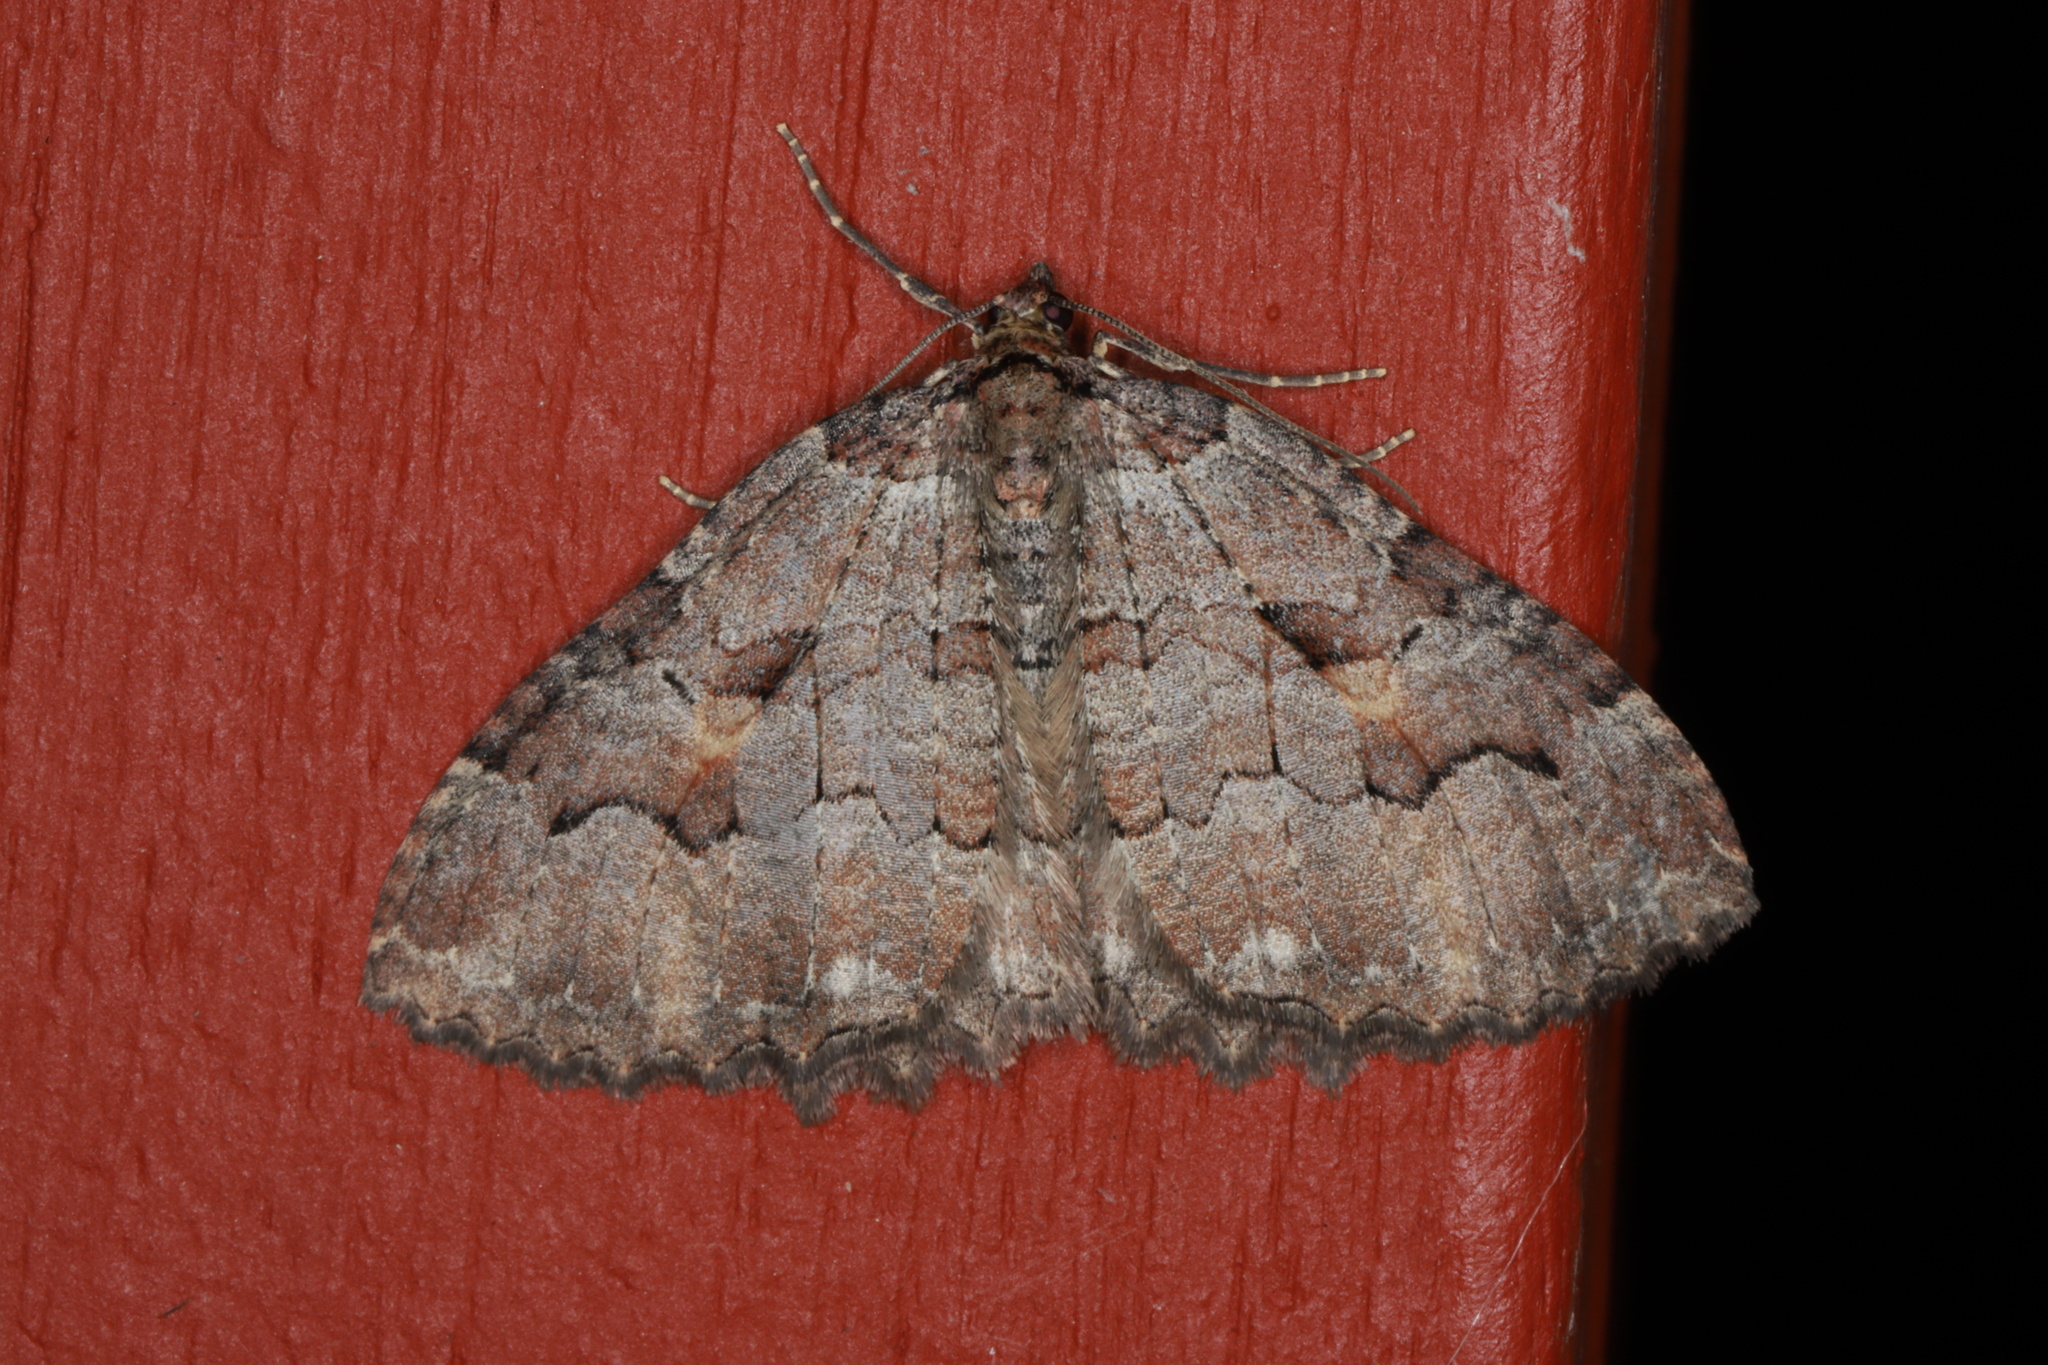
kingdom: Animalia
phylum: Arthropoda
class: Insecta
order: Lepidoptera
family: Geometridae
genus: Triphosa
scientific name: Triphosa haesitata
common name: Tissue moth
